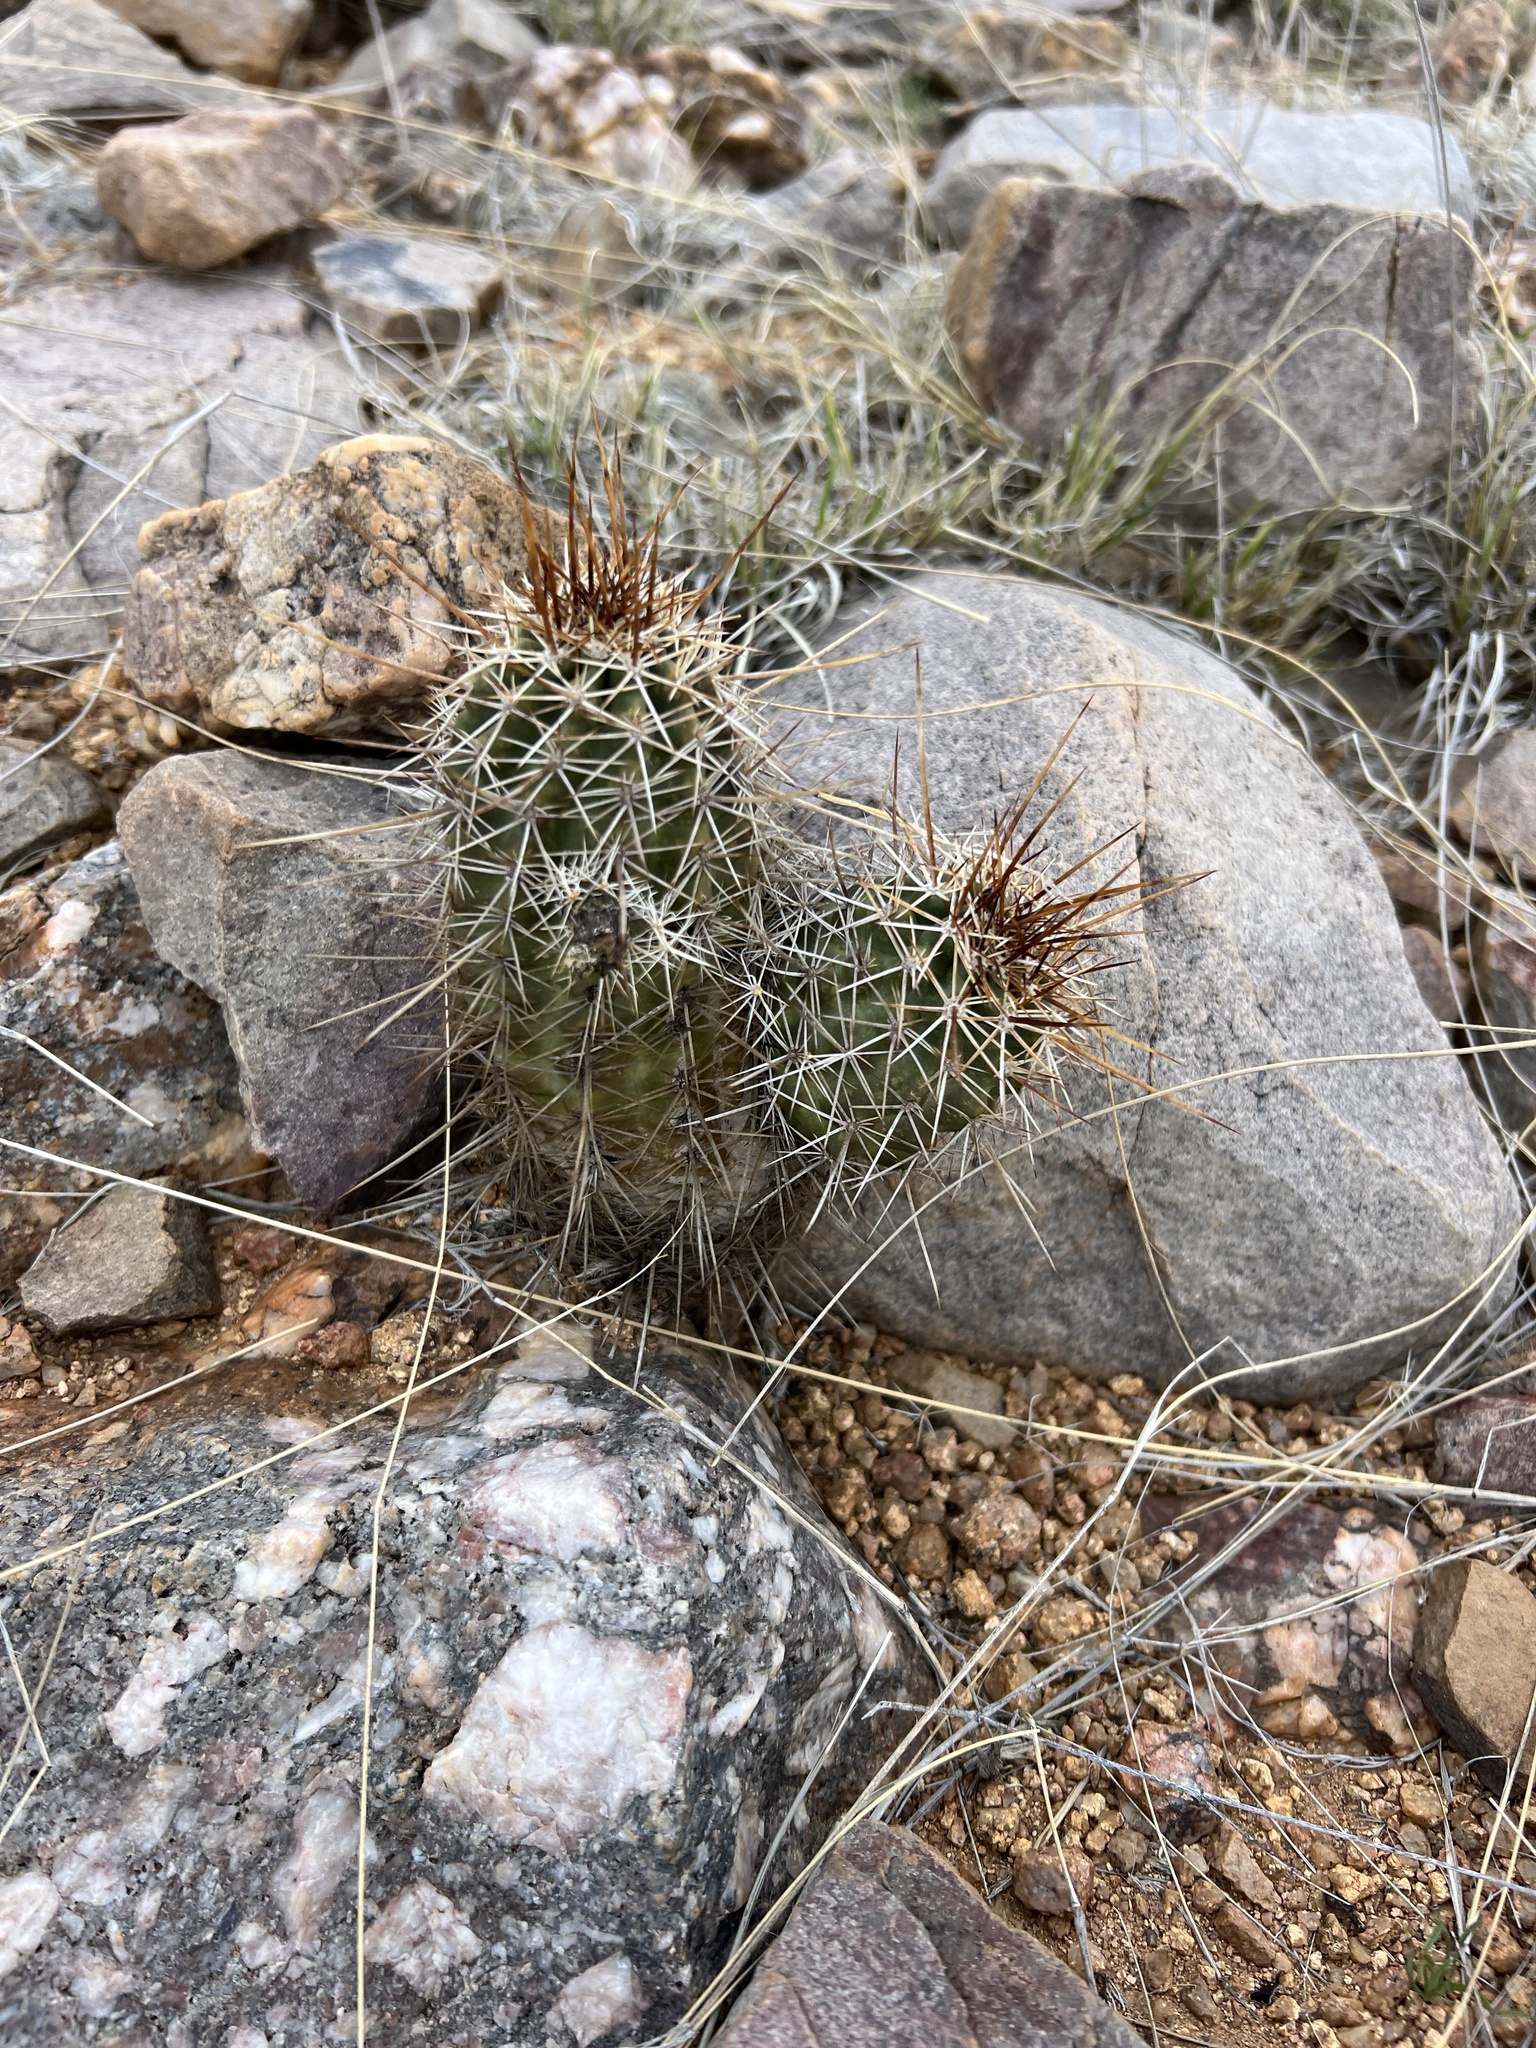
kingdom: Plantae
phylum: Tracheophyta
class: Magnoliopsida
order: Caryophyllales
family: Cactaceae
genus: Echinocereus
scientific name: Echinocereus fasciculatus
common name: Bundle hedgehog
